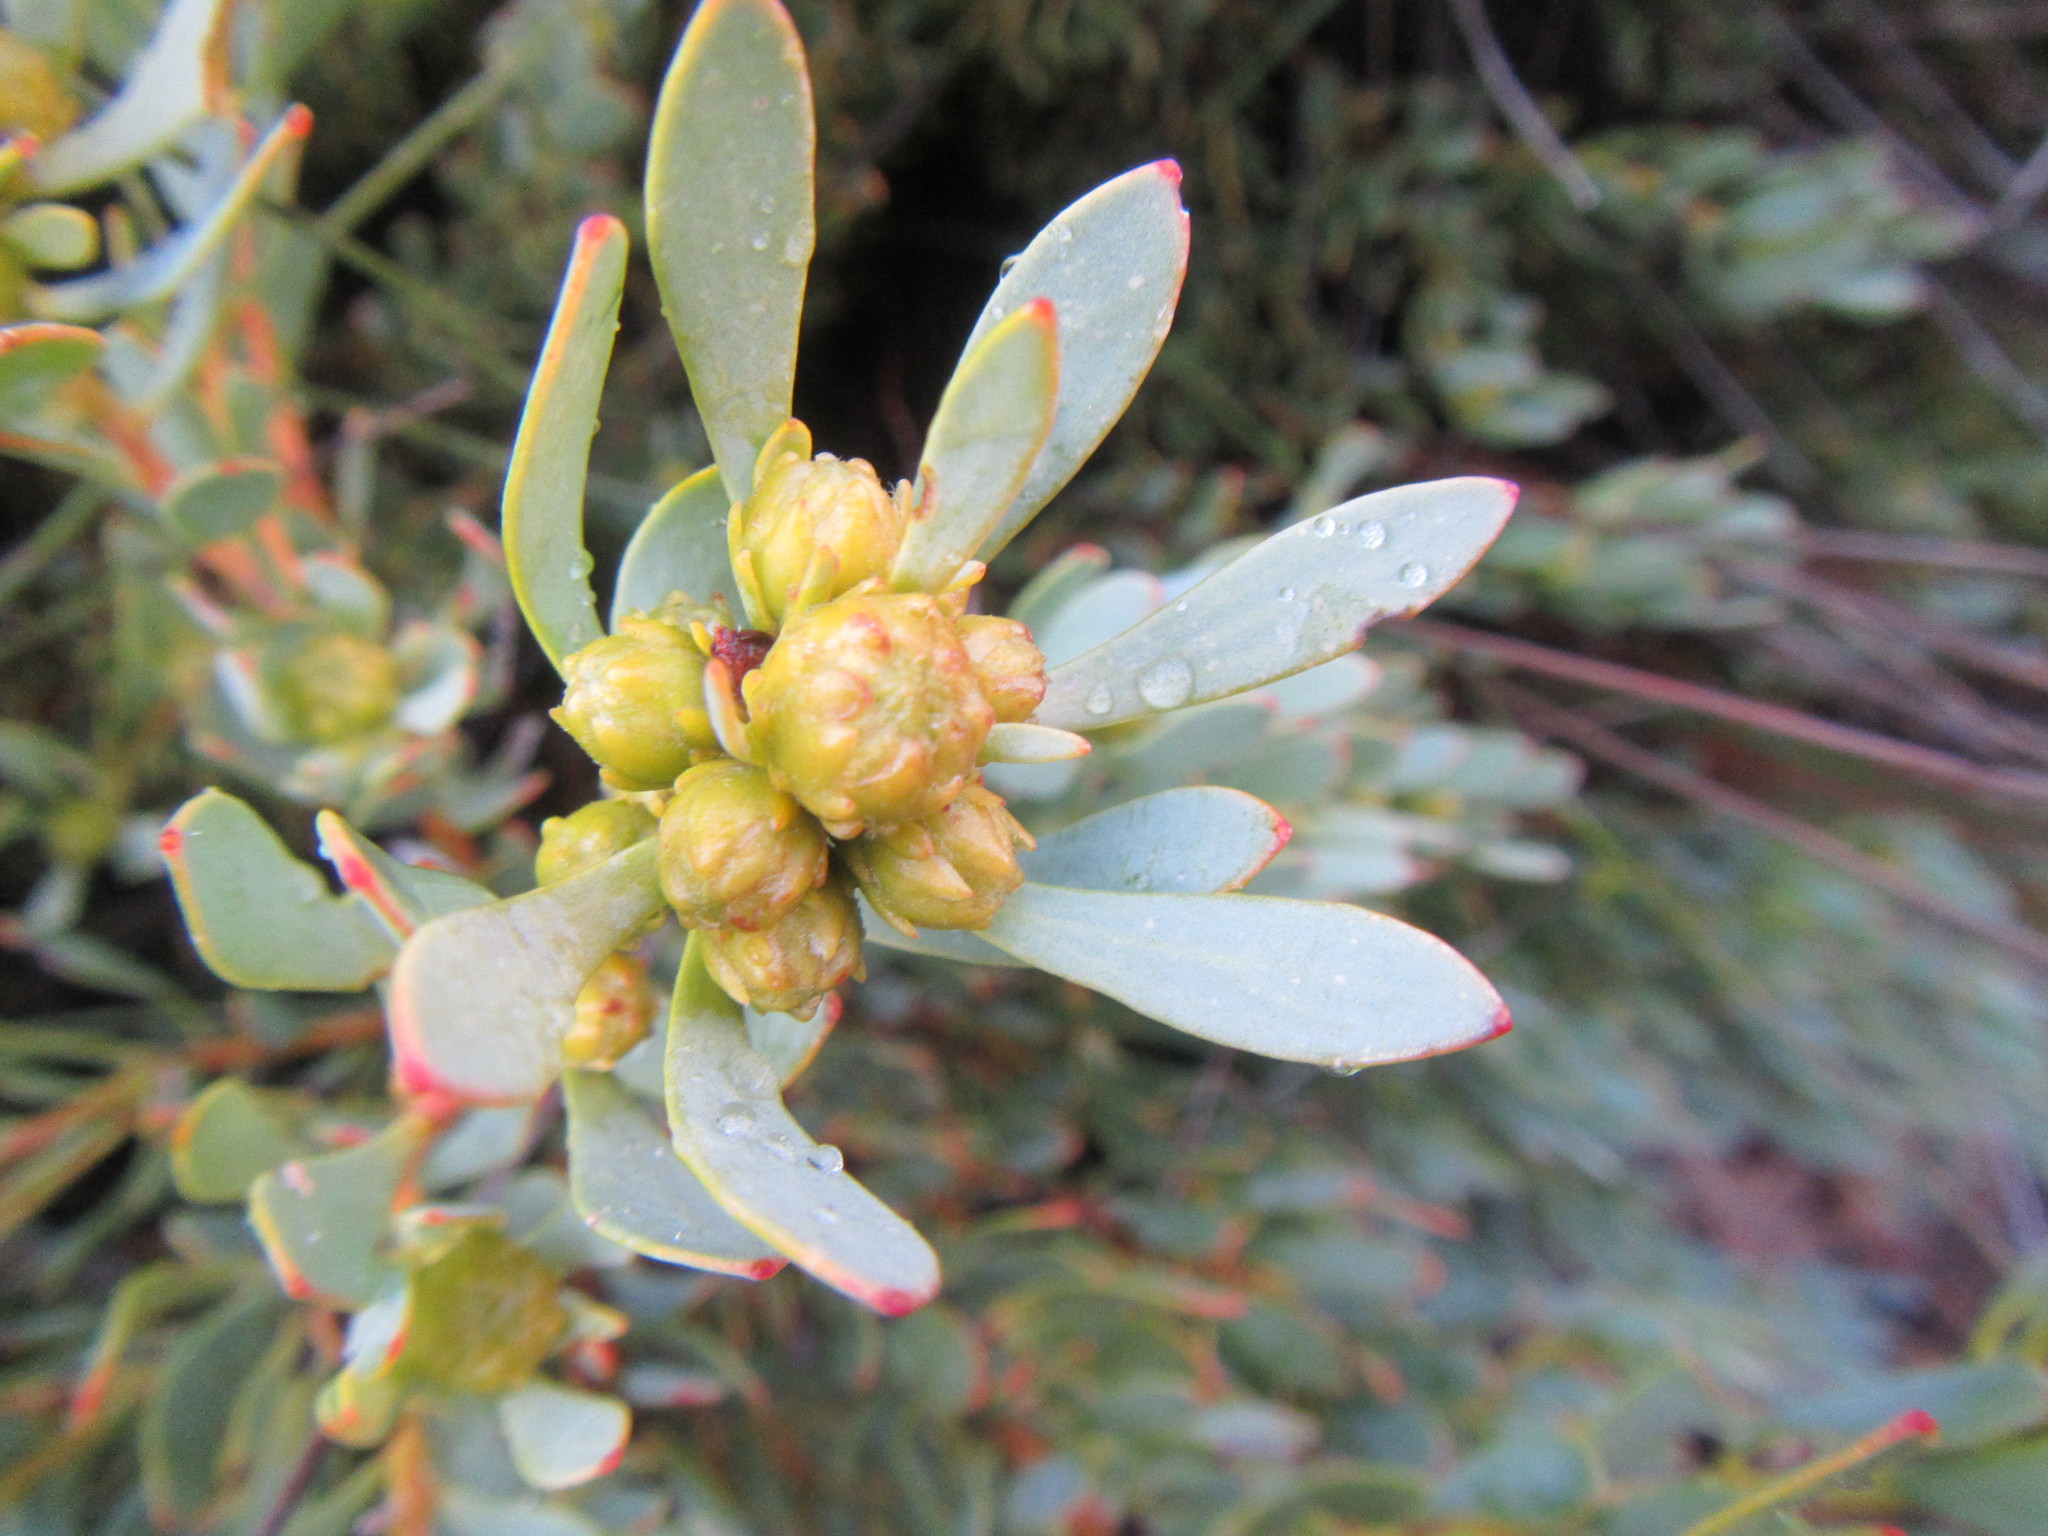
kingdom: Plantae
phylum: Tracheophyta
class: Magnoliopsida
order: Proteales
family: Proteaceae
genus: Leucadendron
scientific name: Leucadendron glaberrimum
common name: Common oily conebush
